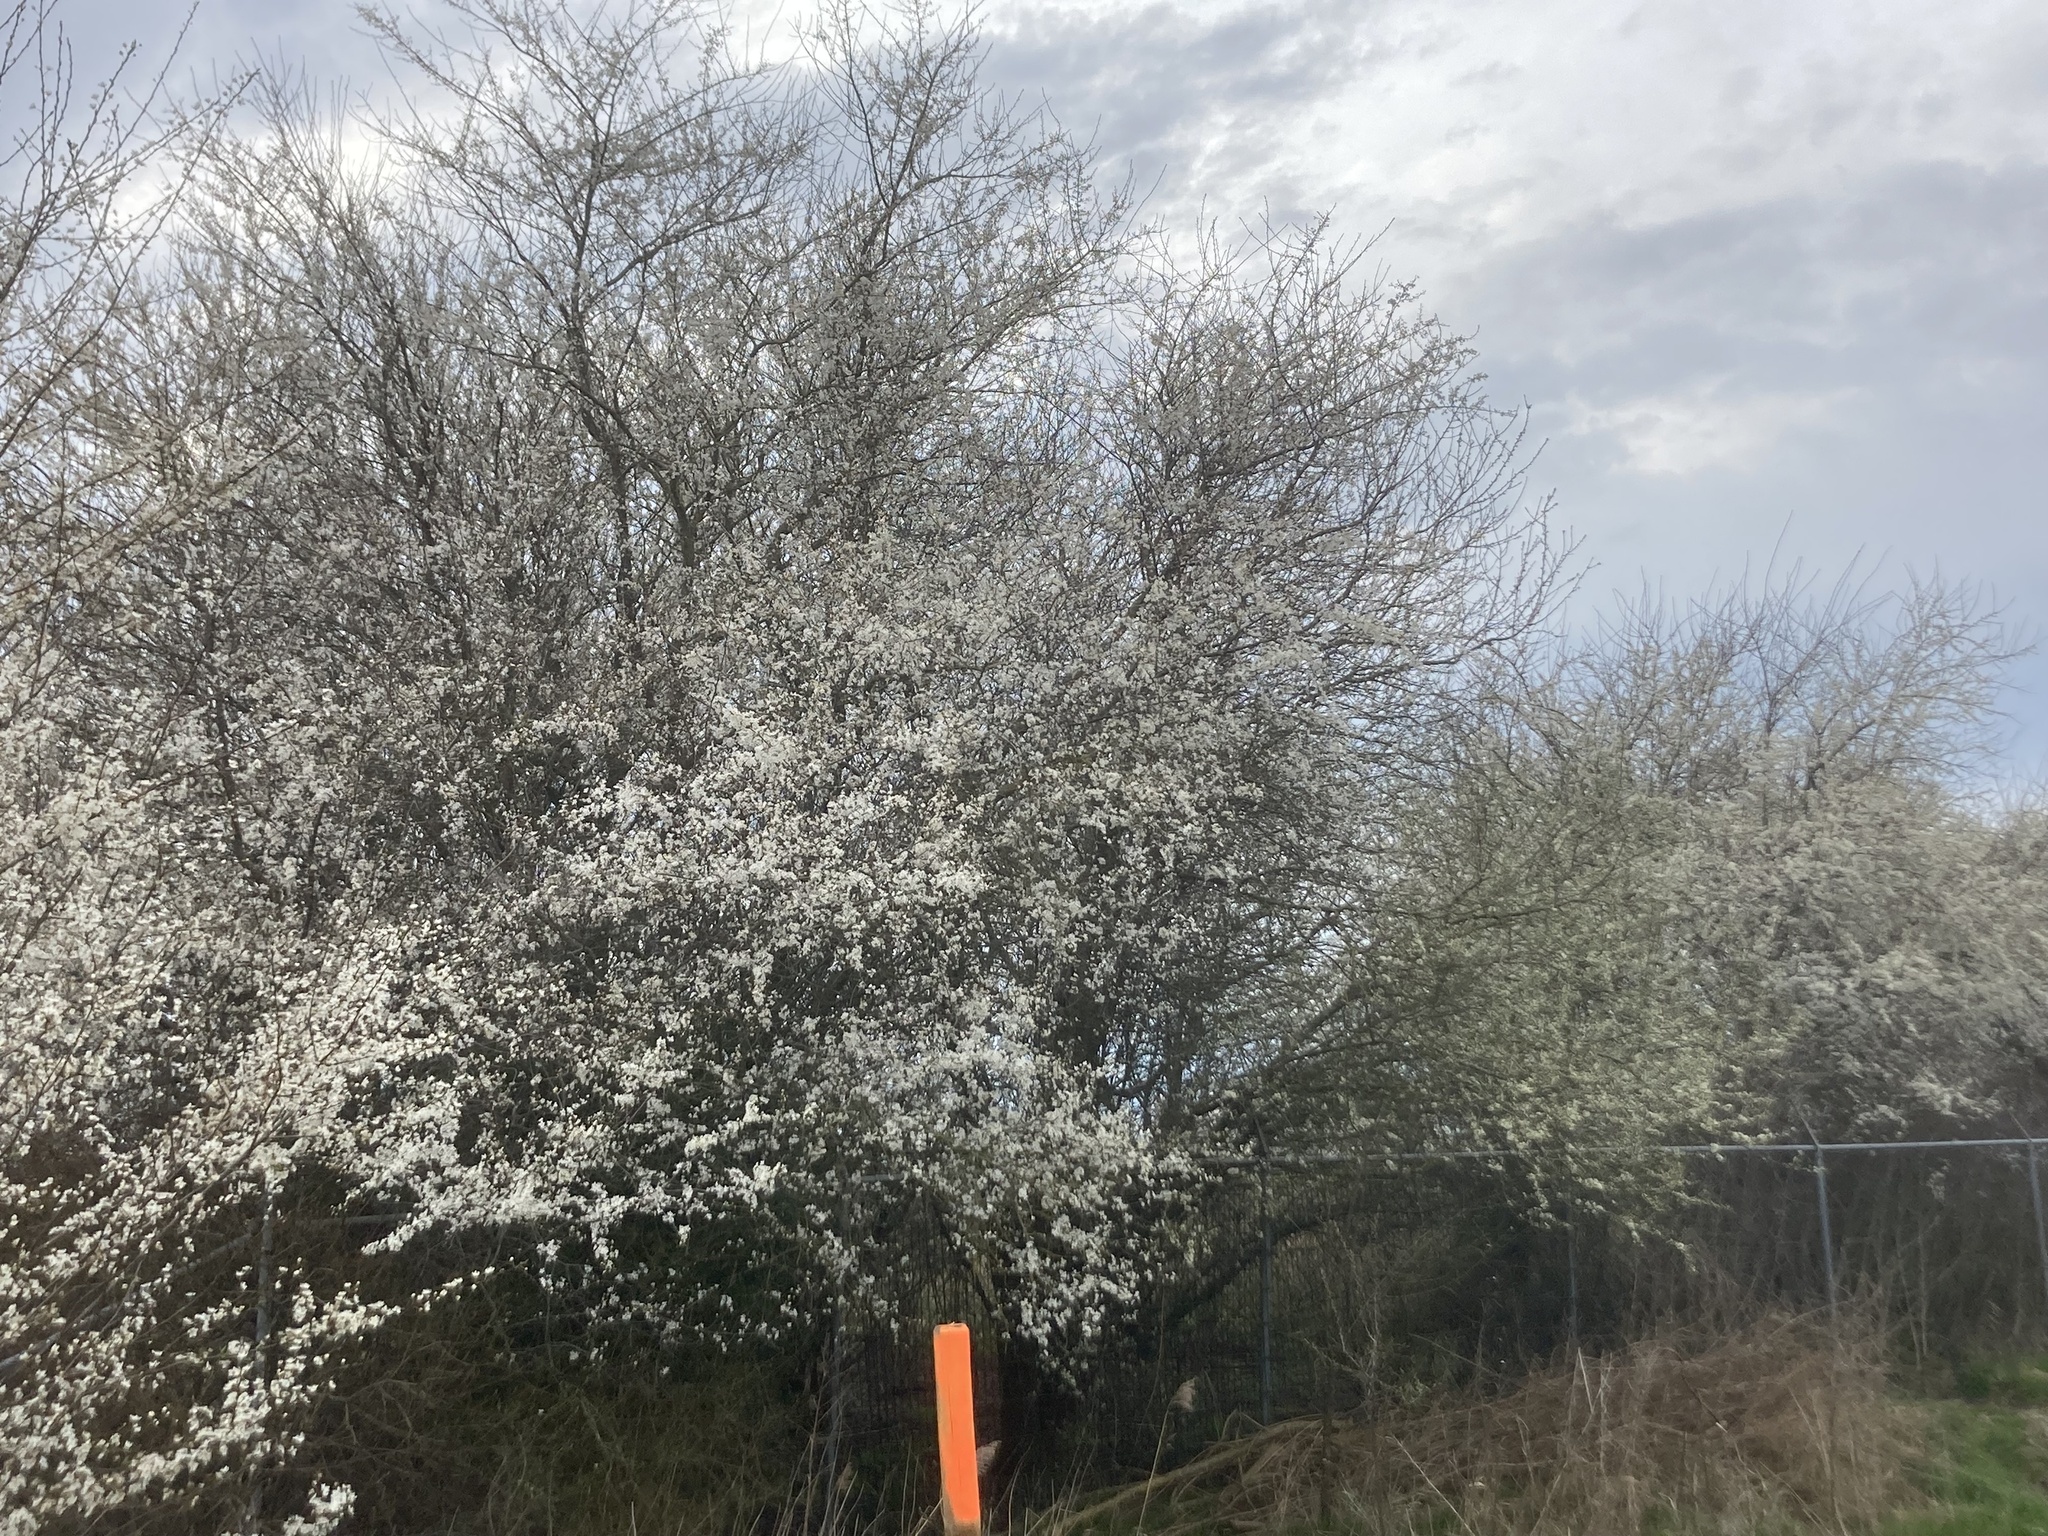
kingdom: Plantae
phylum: Tracheophyta
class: Magnoliopsida
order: Rosales
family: Rosaceae
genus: Prunus
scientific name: Prunus cerasifera
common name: Cherry plum
